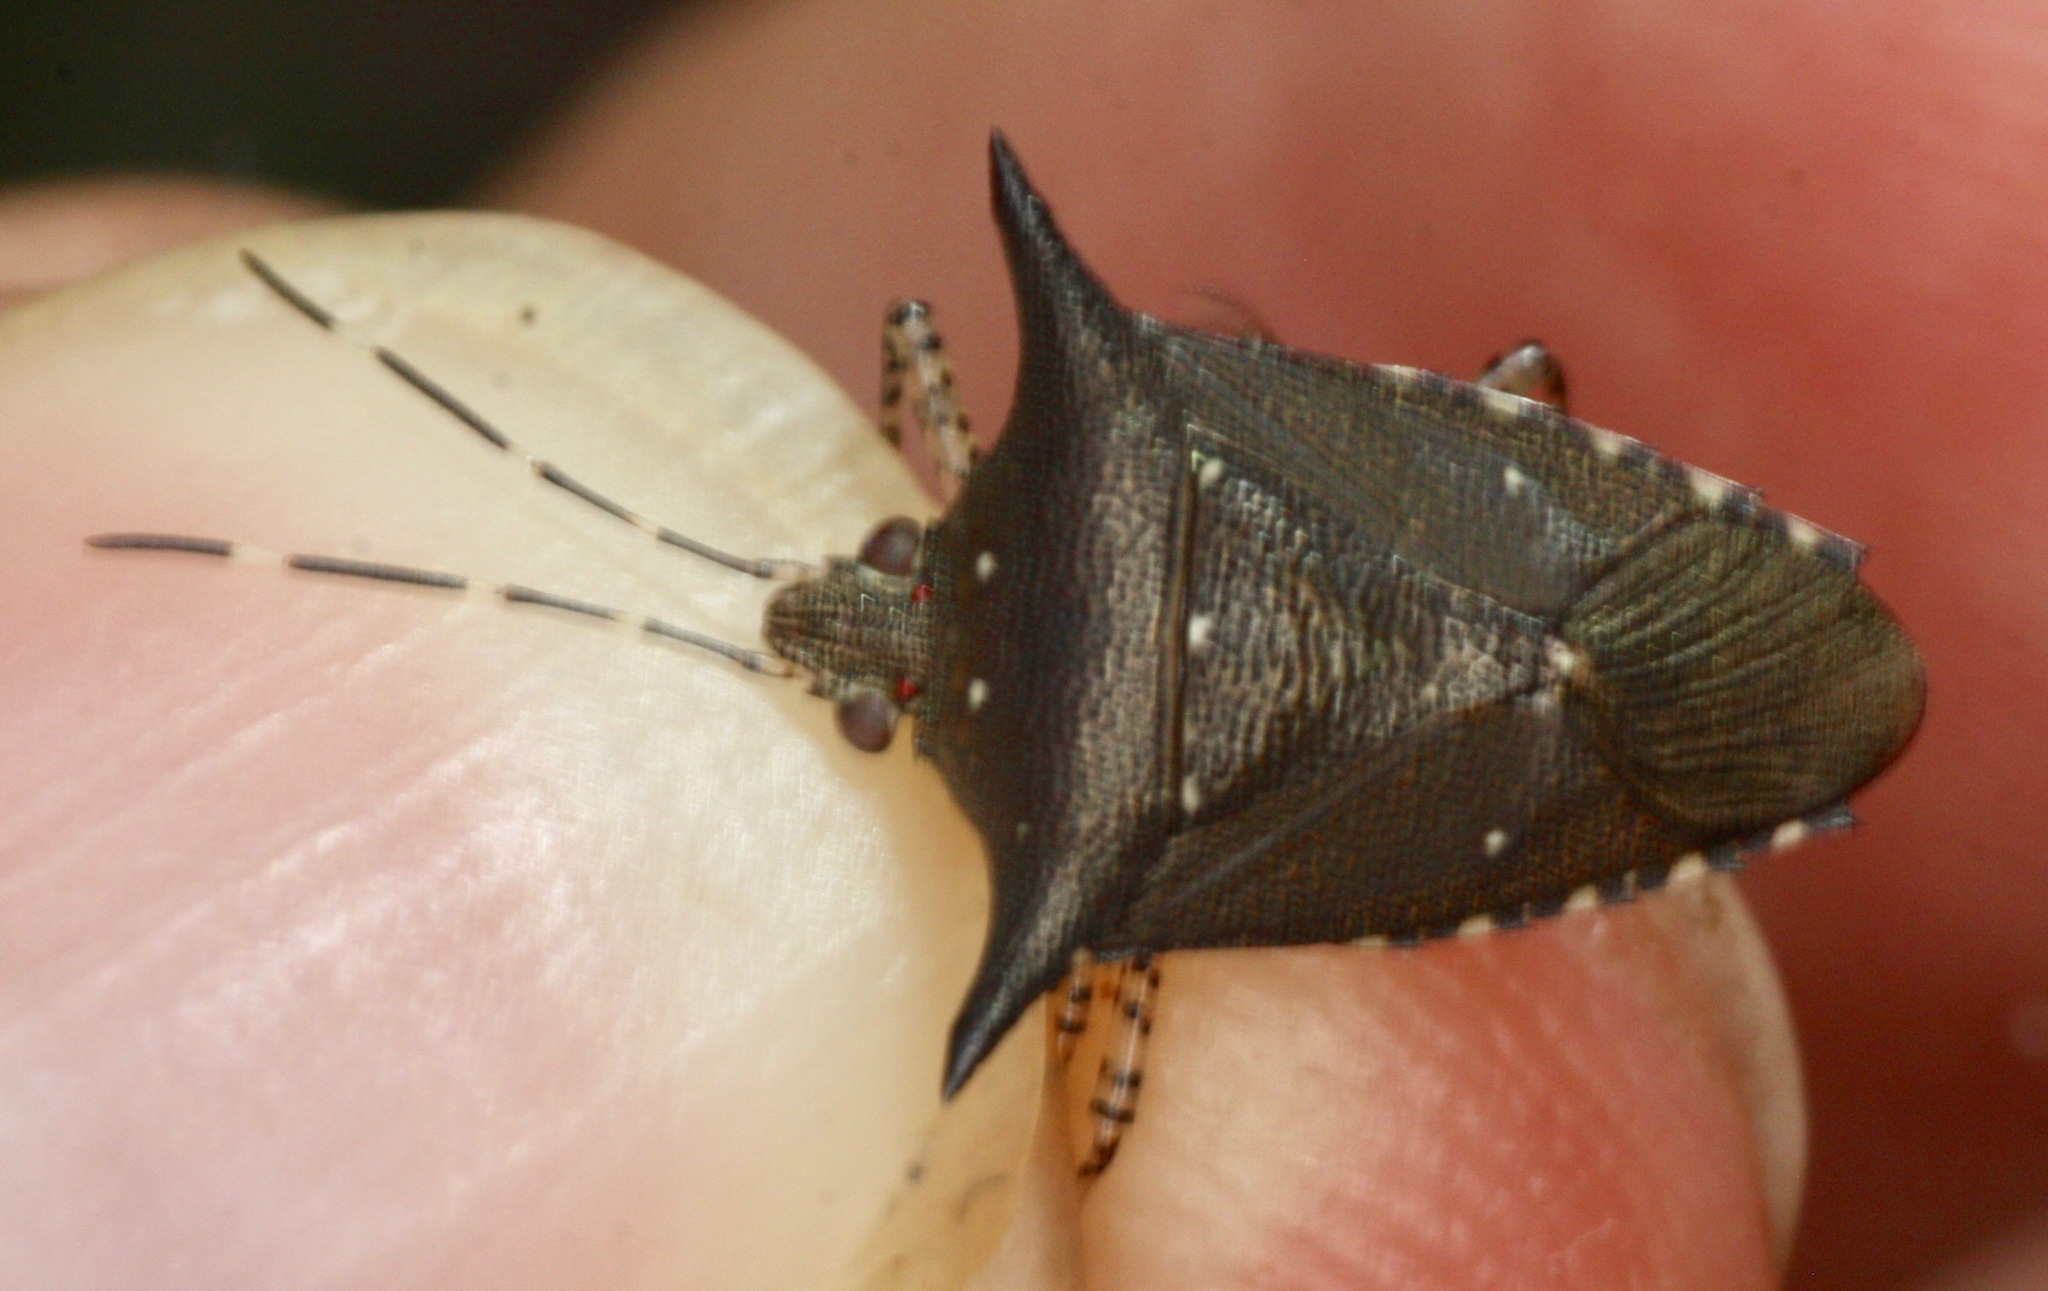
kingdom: Animalia
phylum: Arthropoda
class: Insecta
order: Hemiptera
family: Pentatomidae
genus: Sibaria
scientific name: Sibaria englemani
